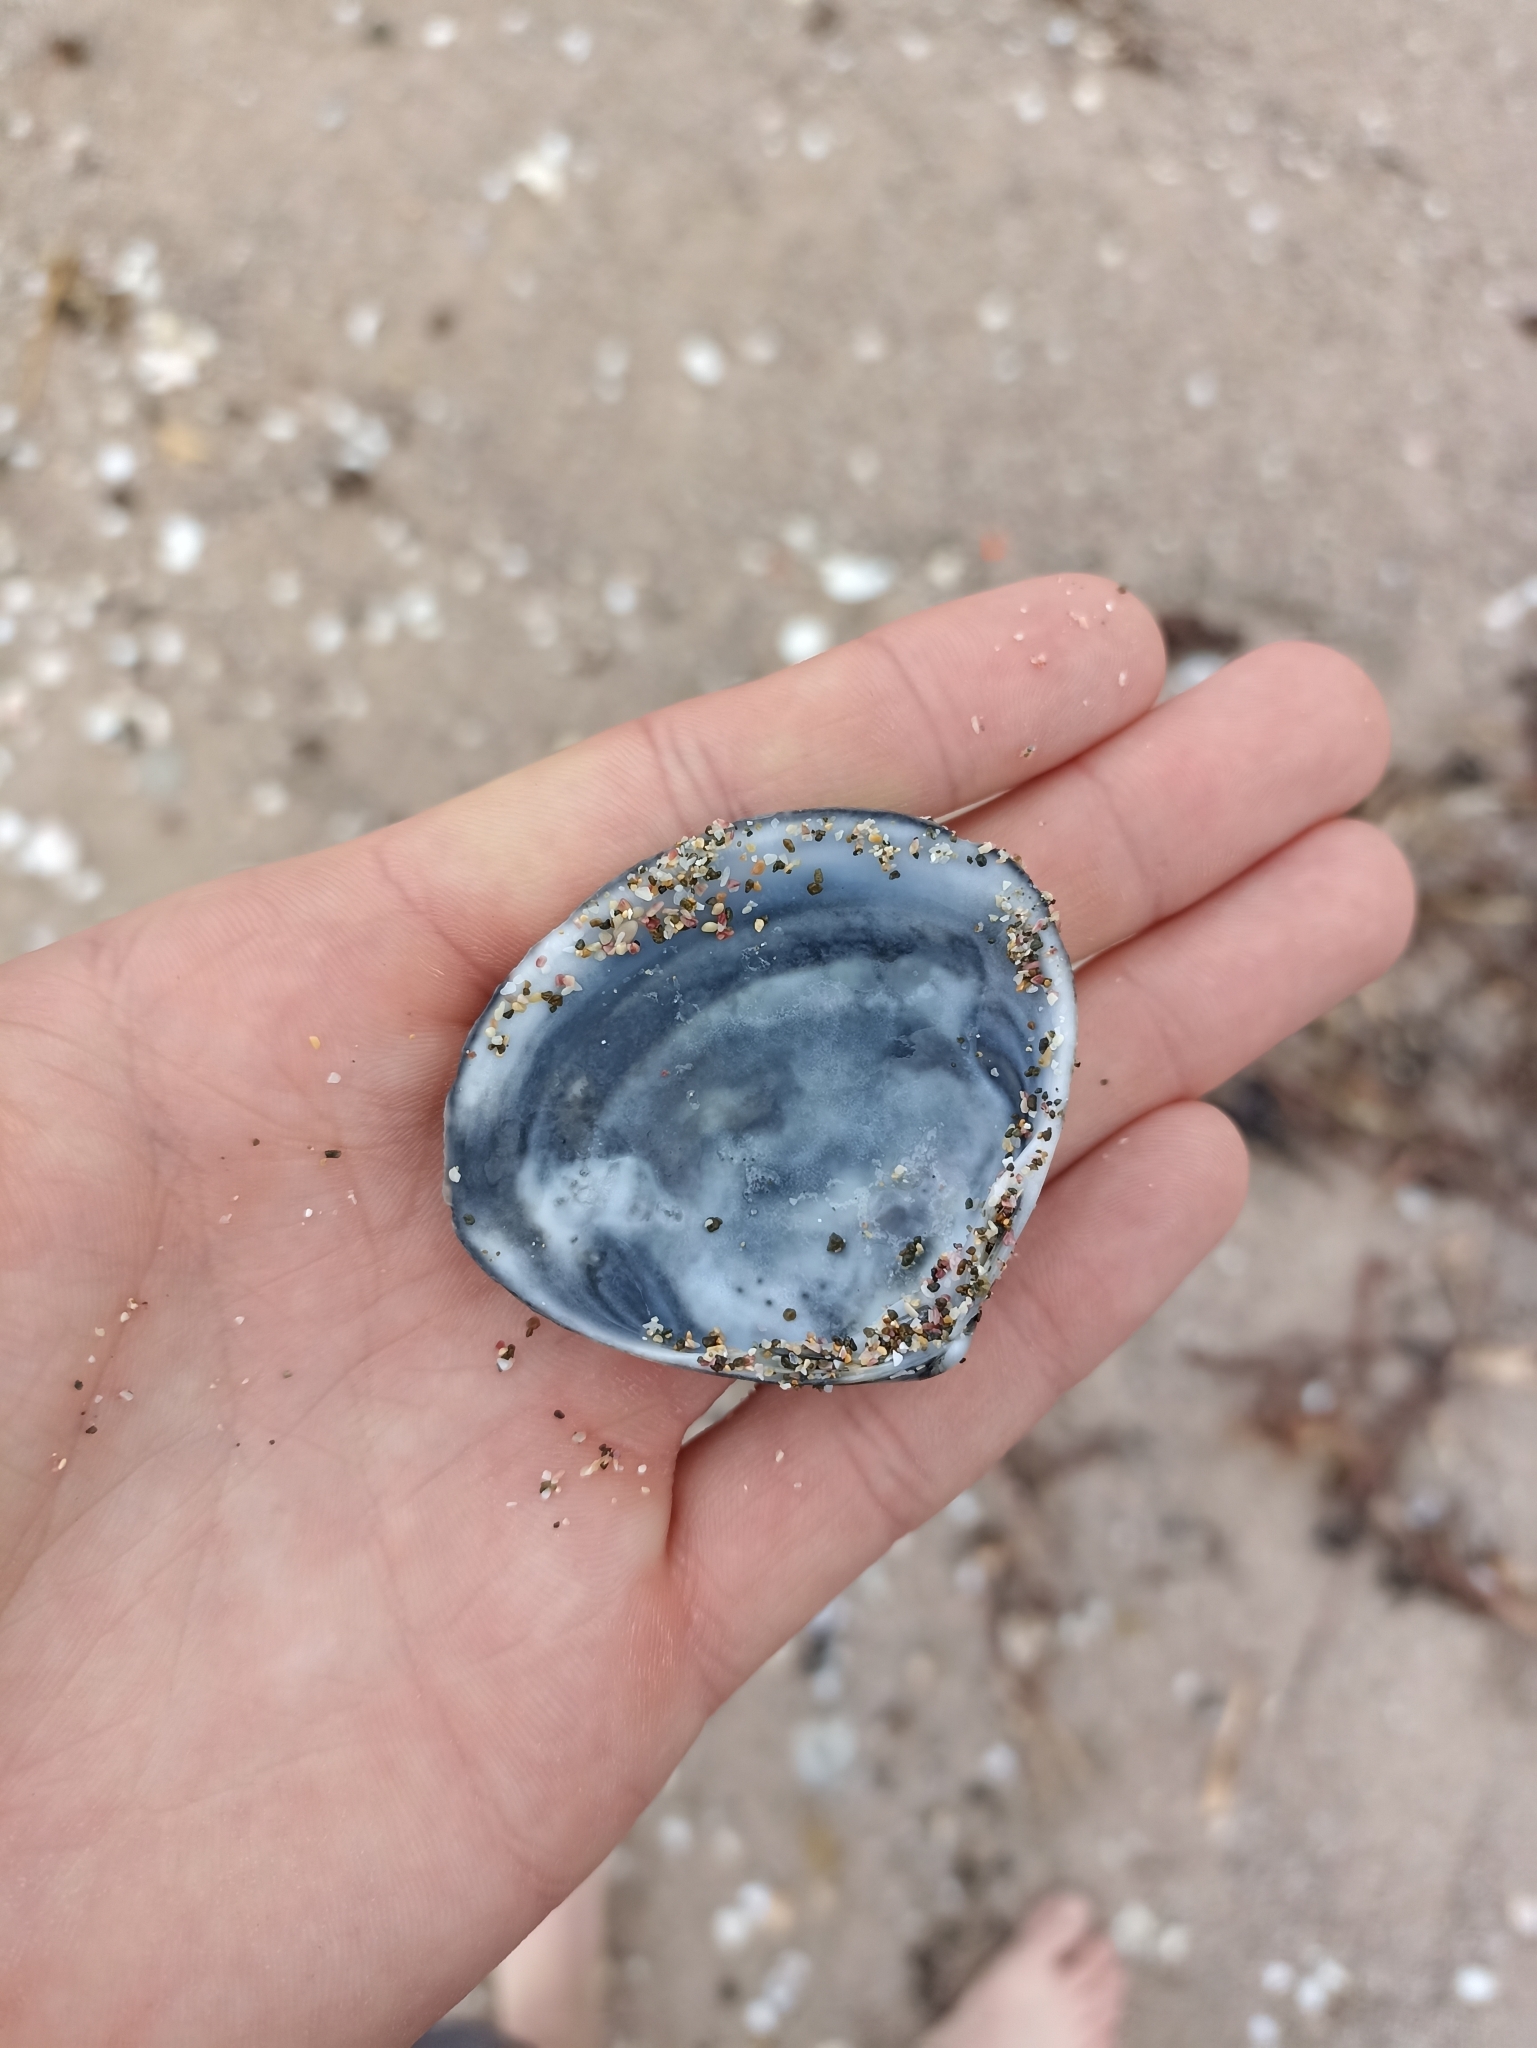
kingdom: Animalia
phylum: Mollusca
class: Bivalvia
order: Venerida
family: Mactridae
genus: Spisula
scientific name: Spisula discors
